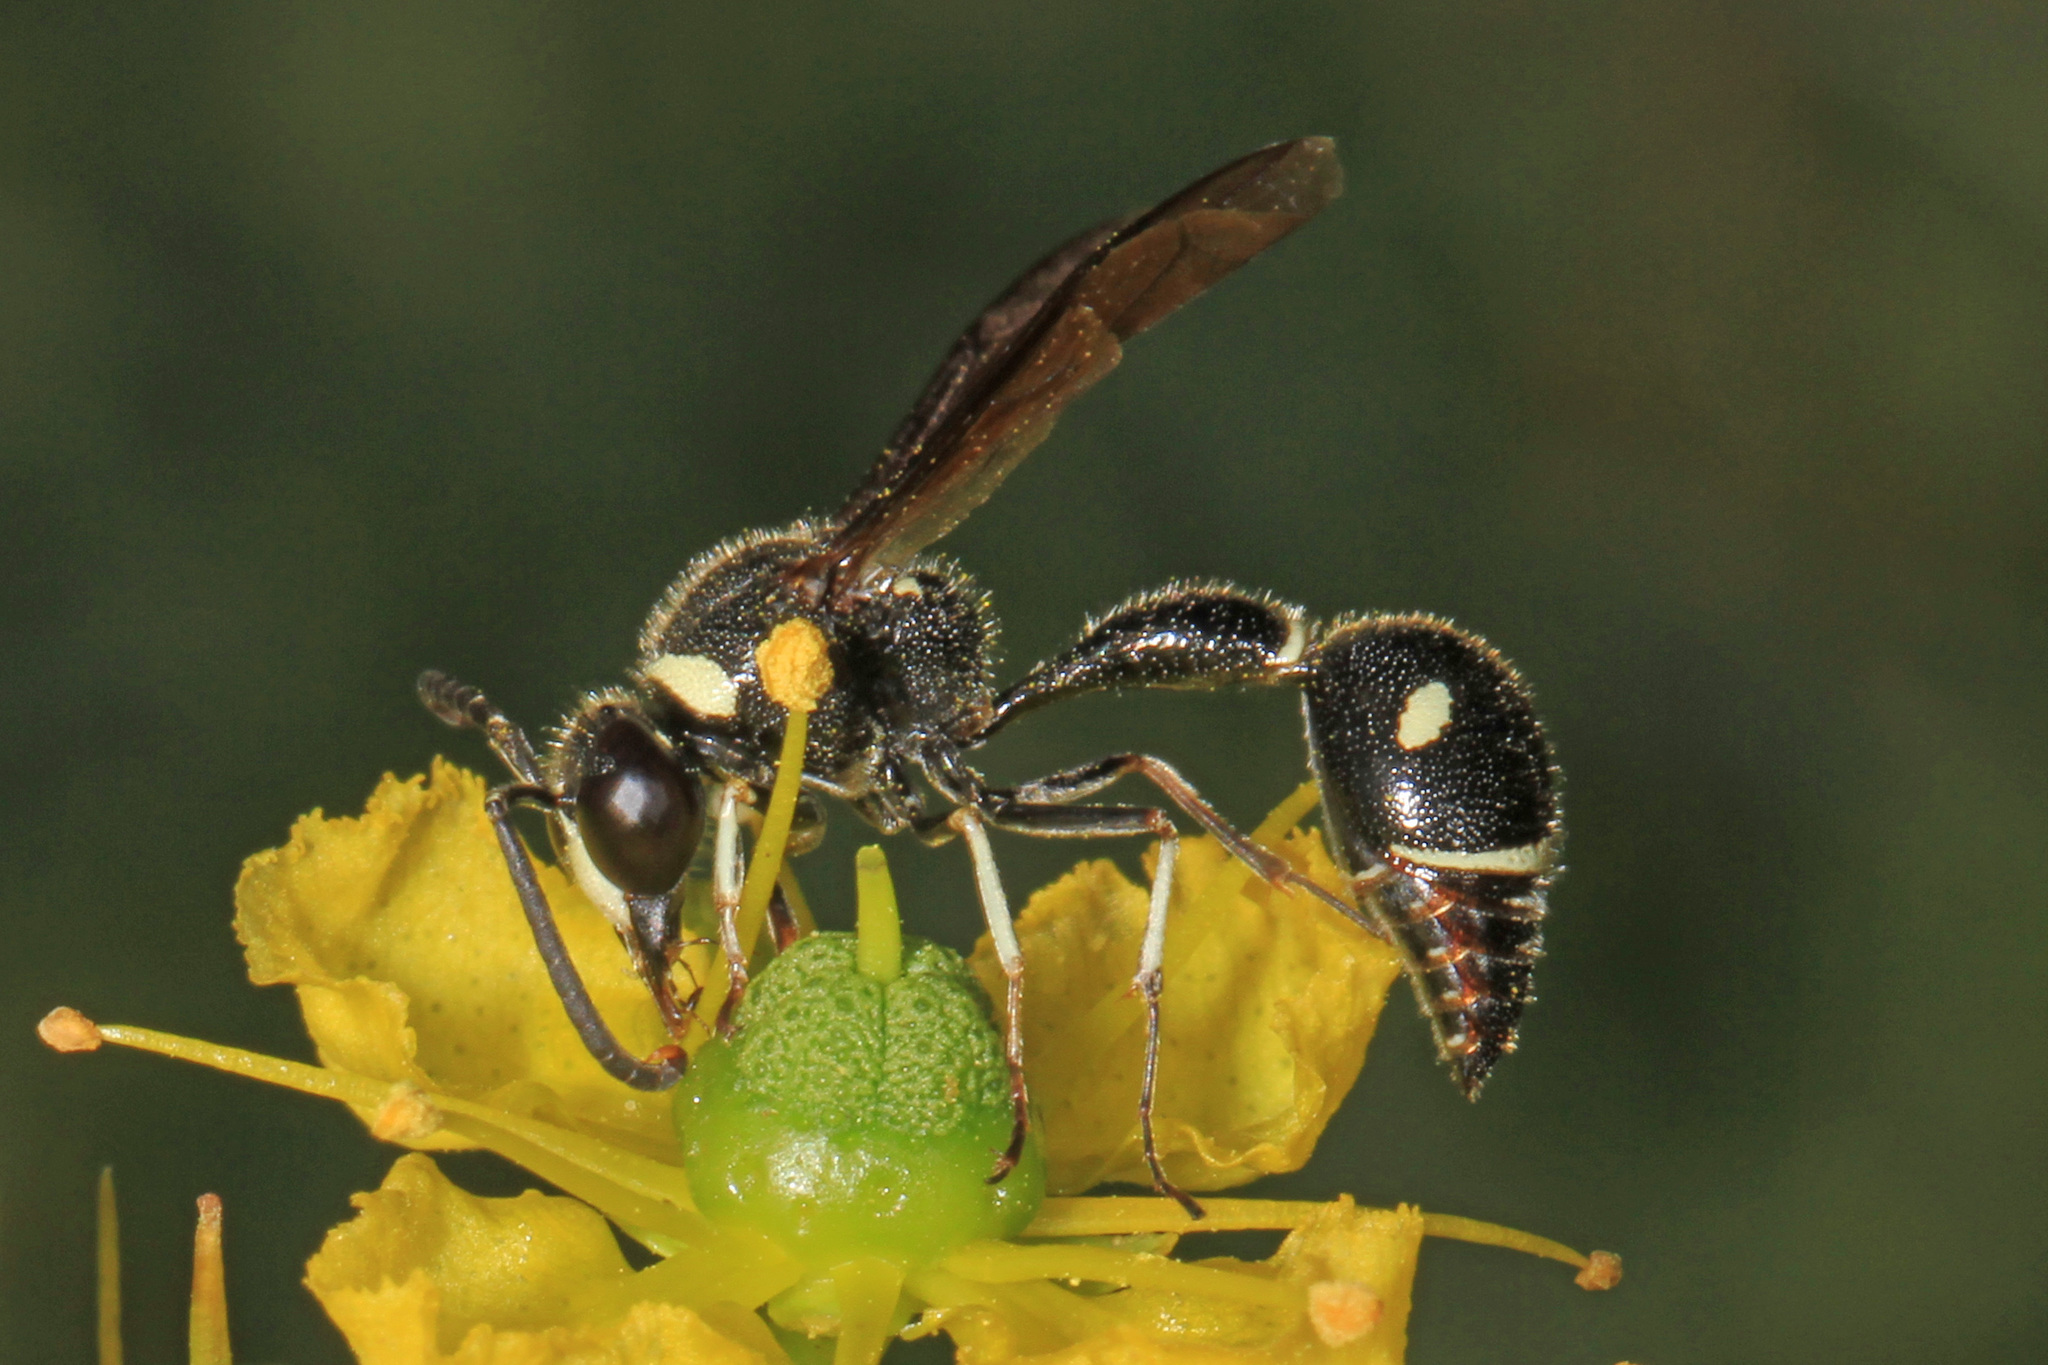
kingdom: Animalia
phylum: Arthropoda
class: Insecta
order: Hymenoptera
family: Vespidae
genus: Eumenes
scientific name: Eumenes fraternus
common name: Fraternal potter wasp
